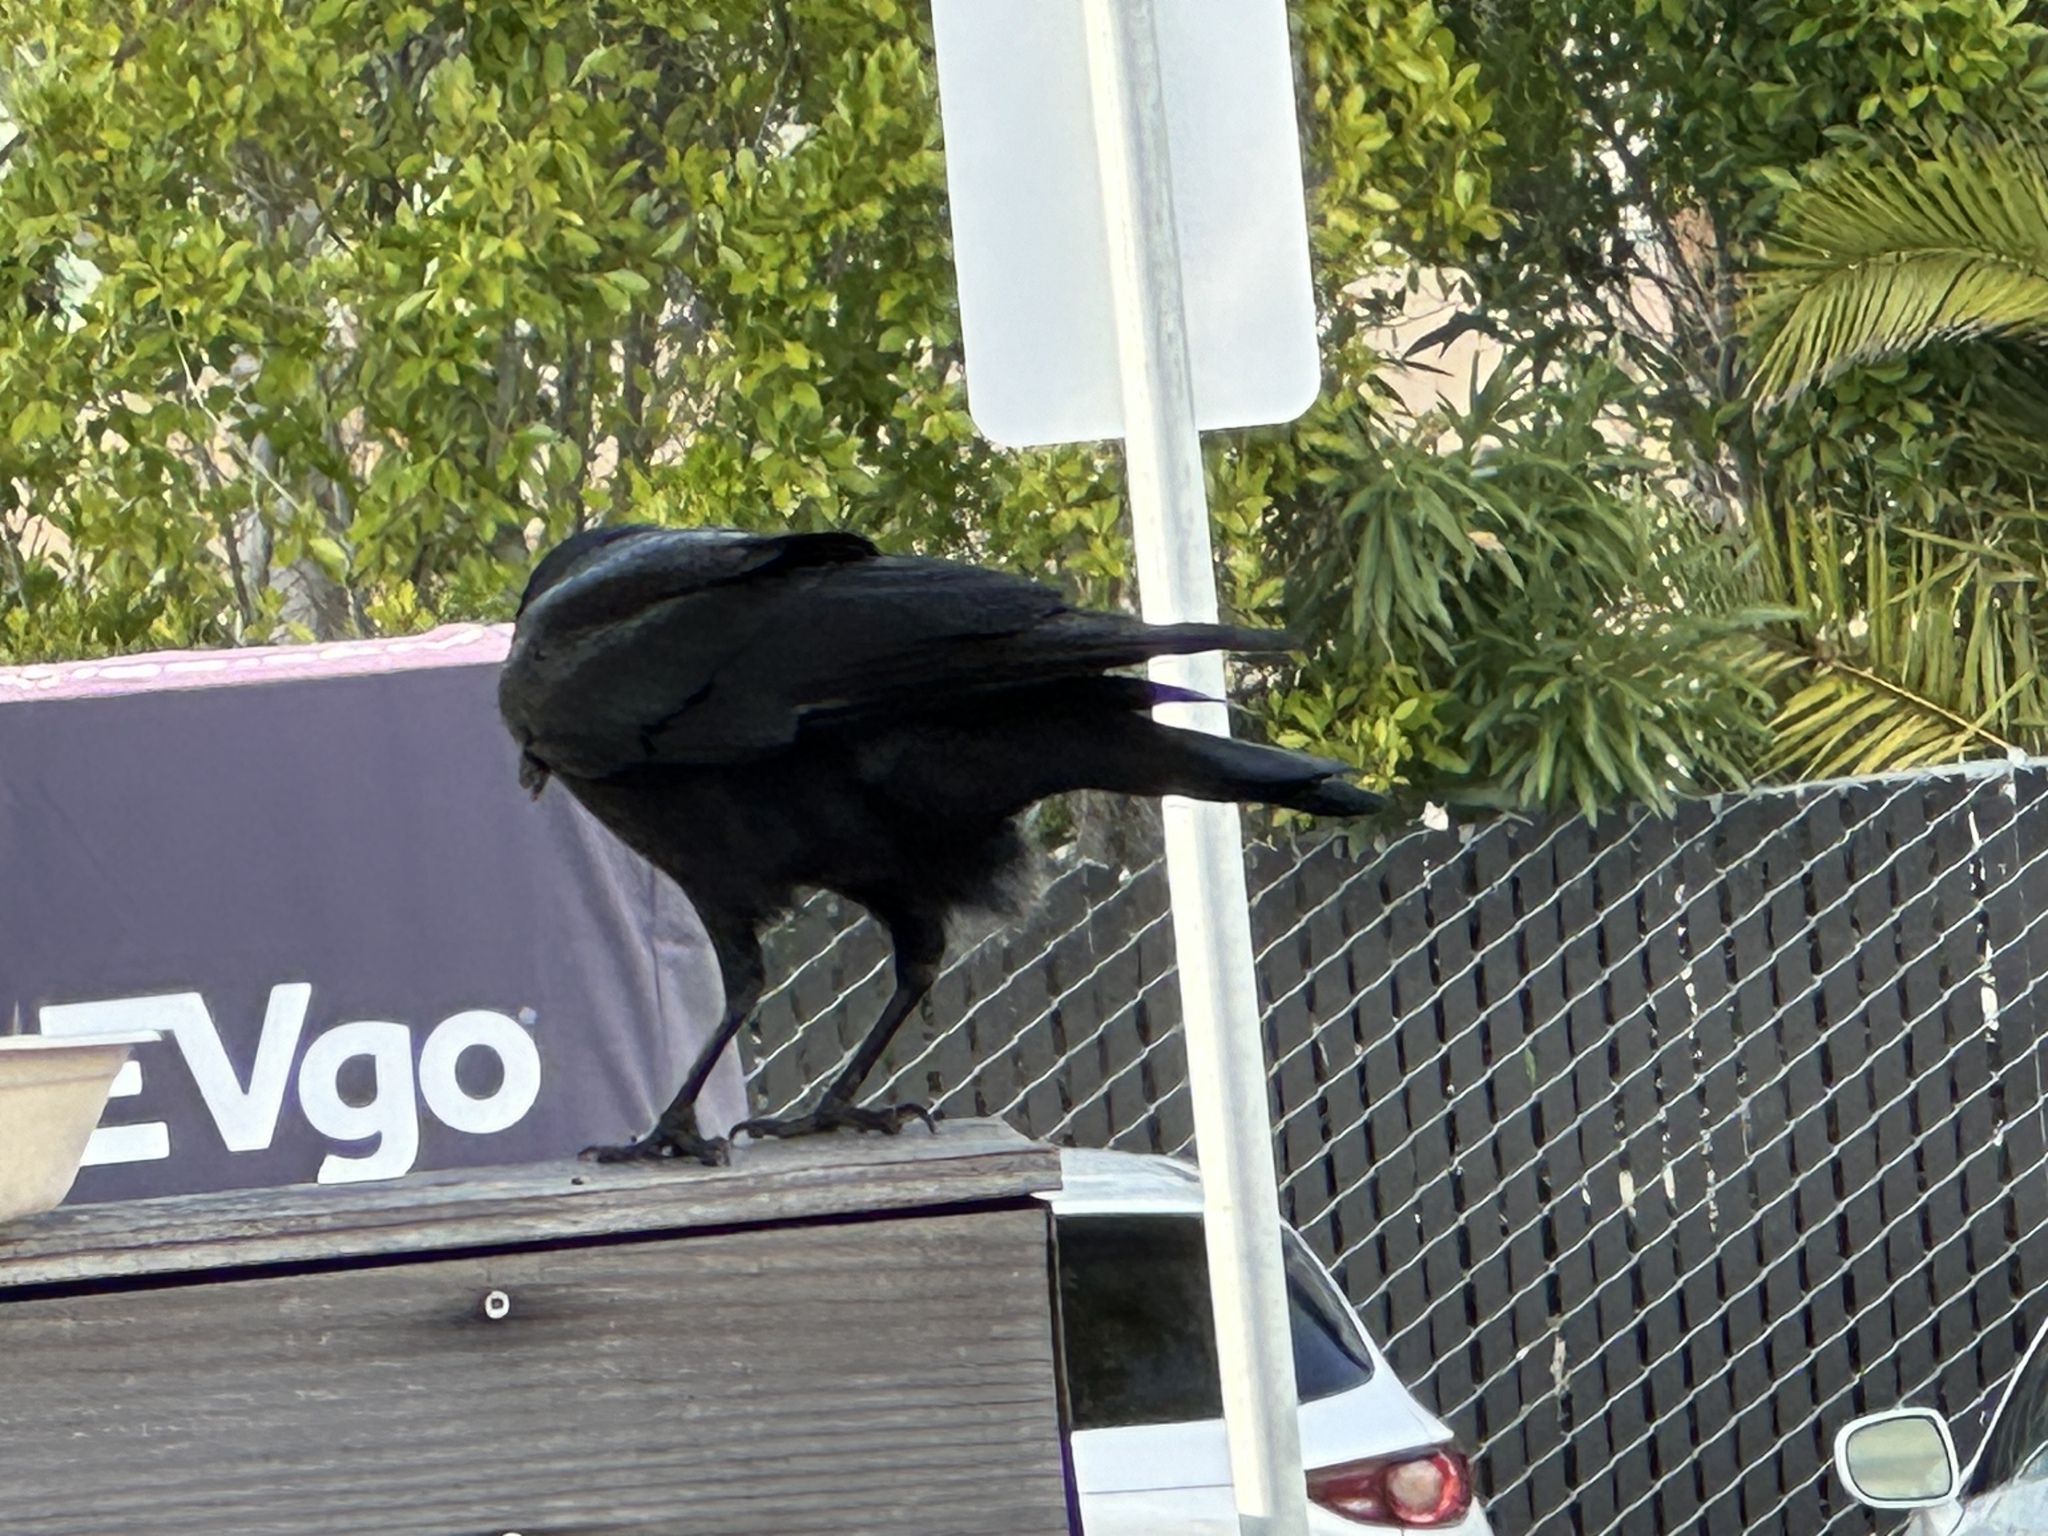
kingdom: Animalia
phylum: Chordata
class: Aves
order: Passeriformes
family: Corvidae
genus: Corvus
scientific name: Corvus brachyrhynchos
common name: American crow
